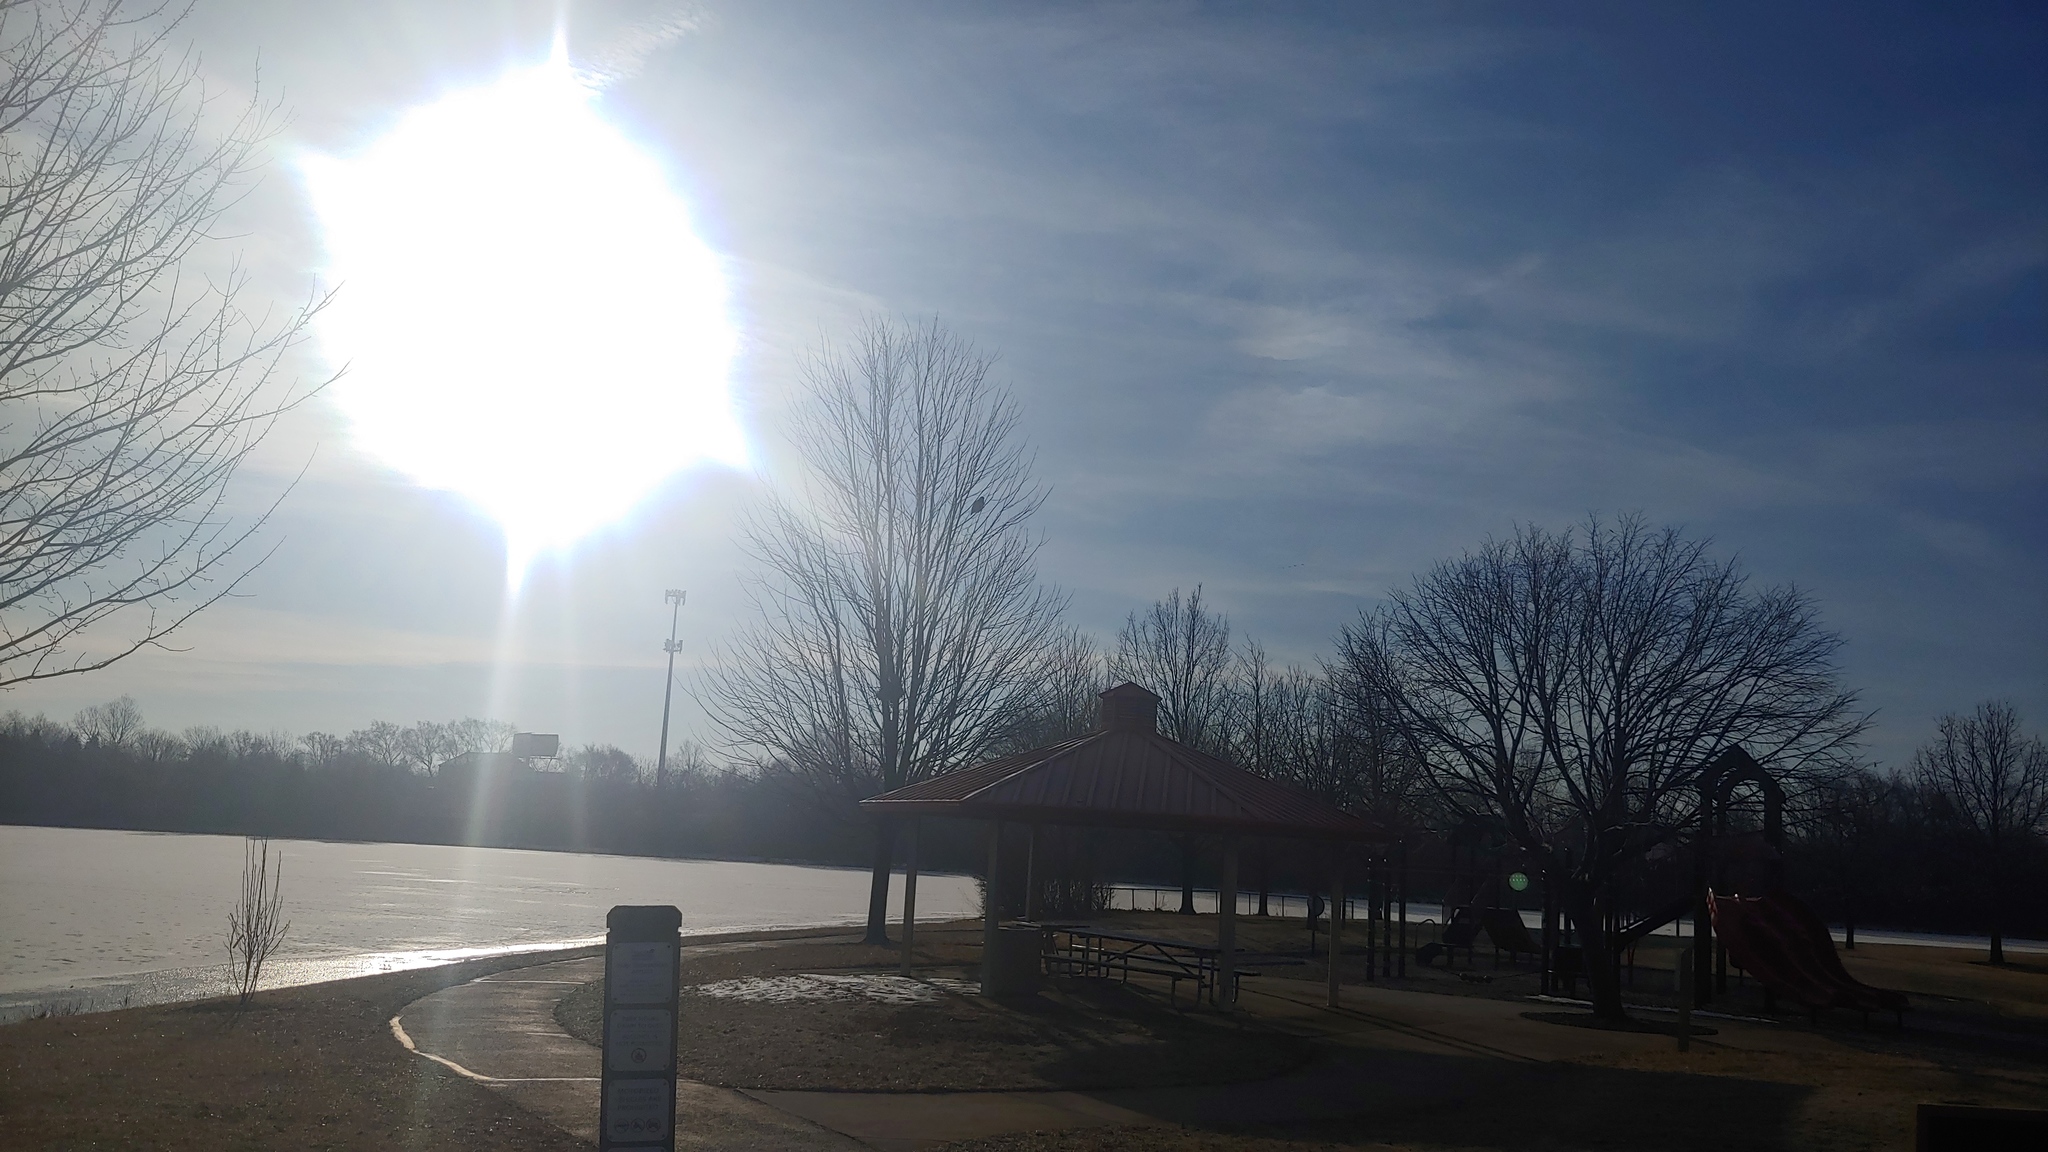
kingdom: Animalia
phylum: Chordata
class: Aves
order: Accipitriformes
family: Accipitridae
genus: Buteo
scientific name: Buteo jamaicensis
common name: Red-tailed hawk
